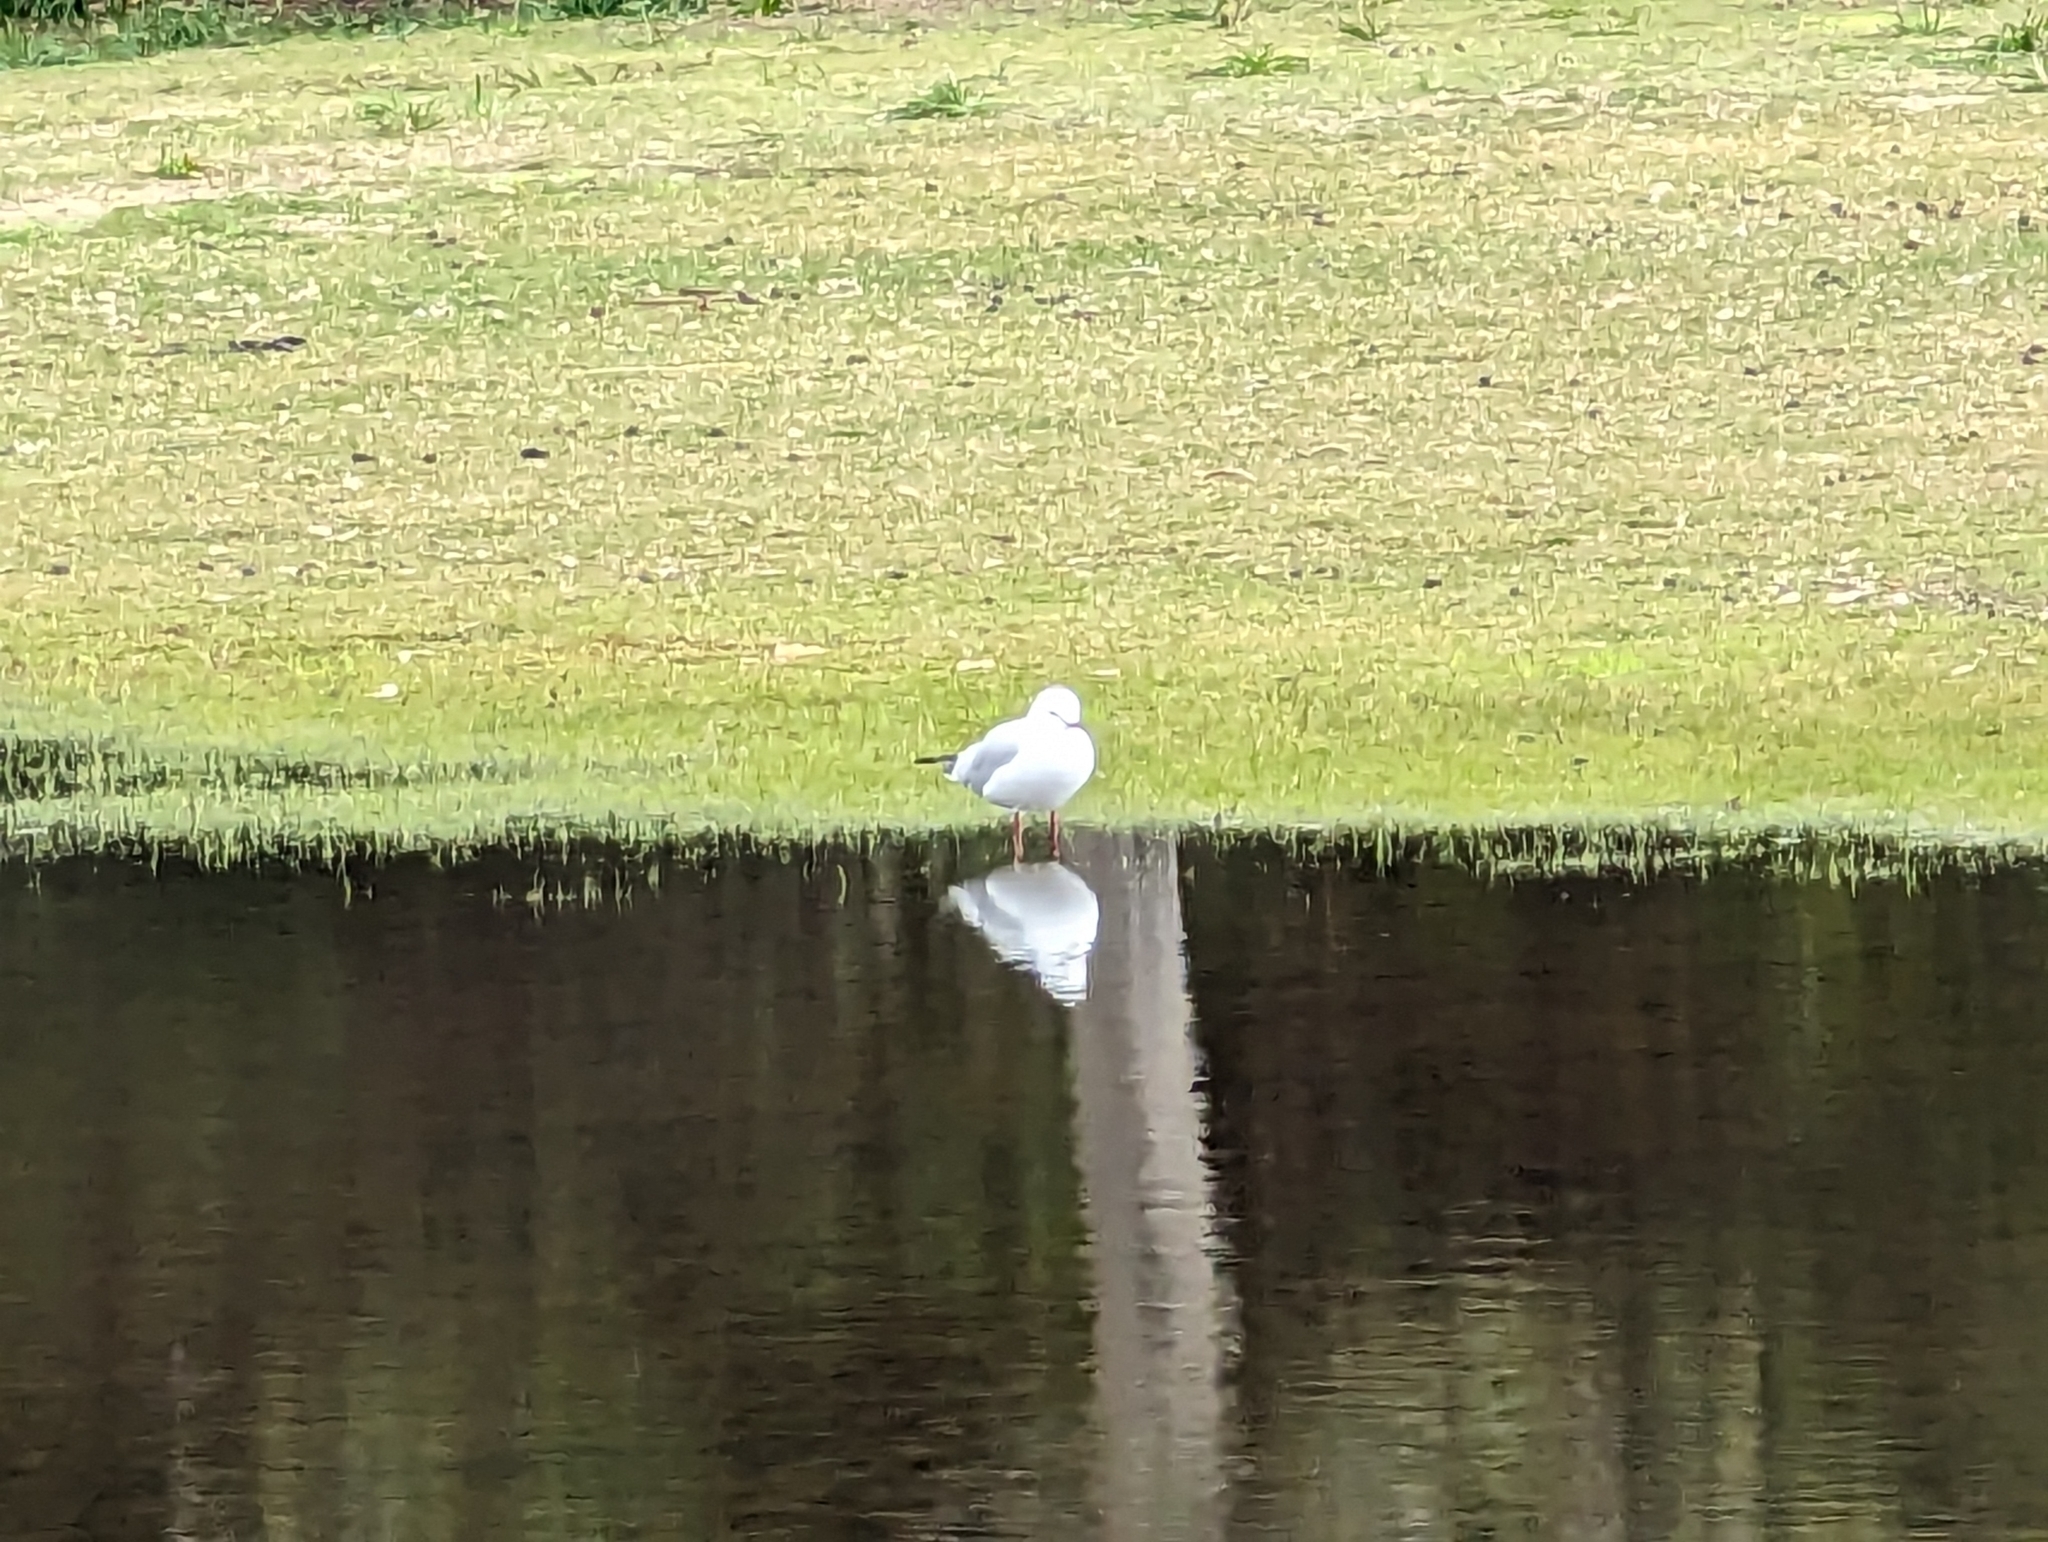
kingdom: Animalia
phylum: Chordata
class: Aves
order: Charadriiformes
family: Laridae
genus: Chroicocephalus
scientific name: Chroicocephalus novaehollandiae
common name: Silver gull
